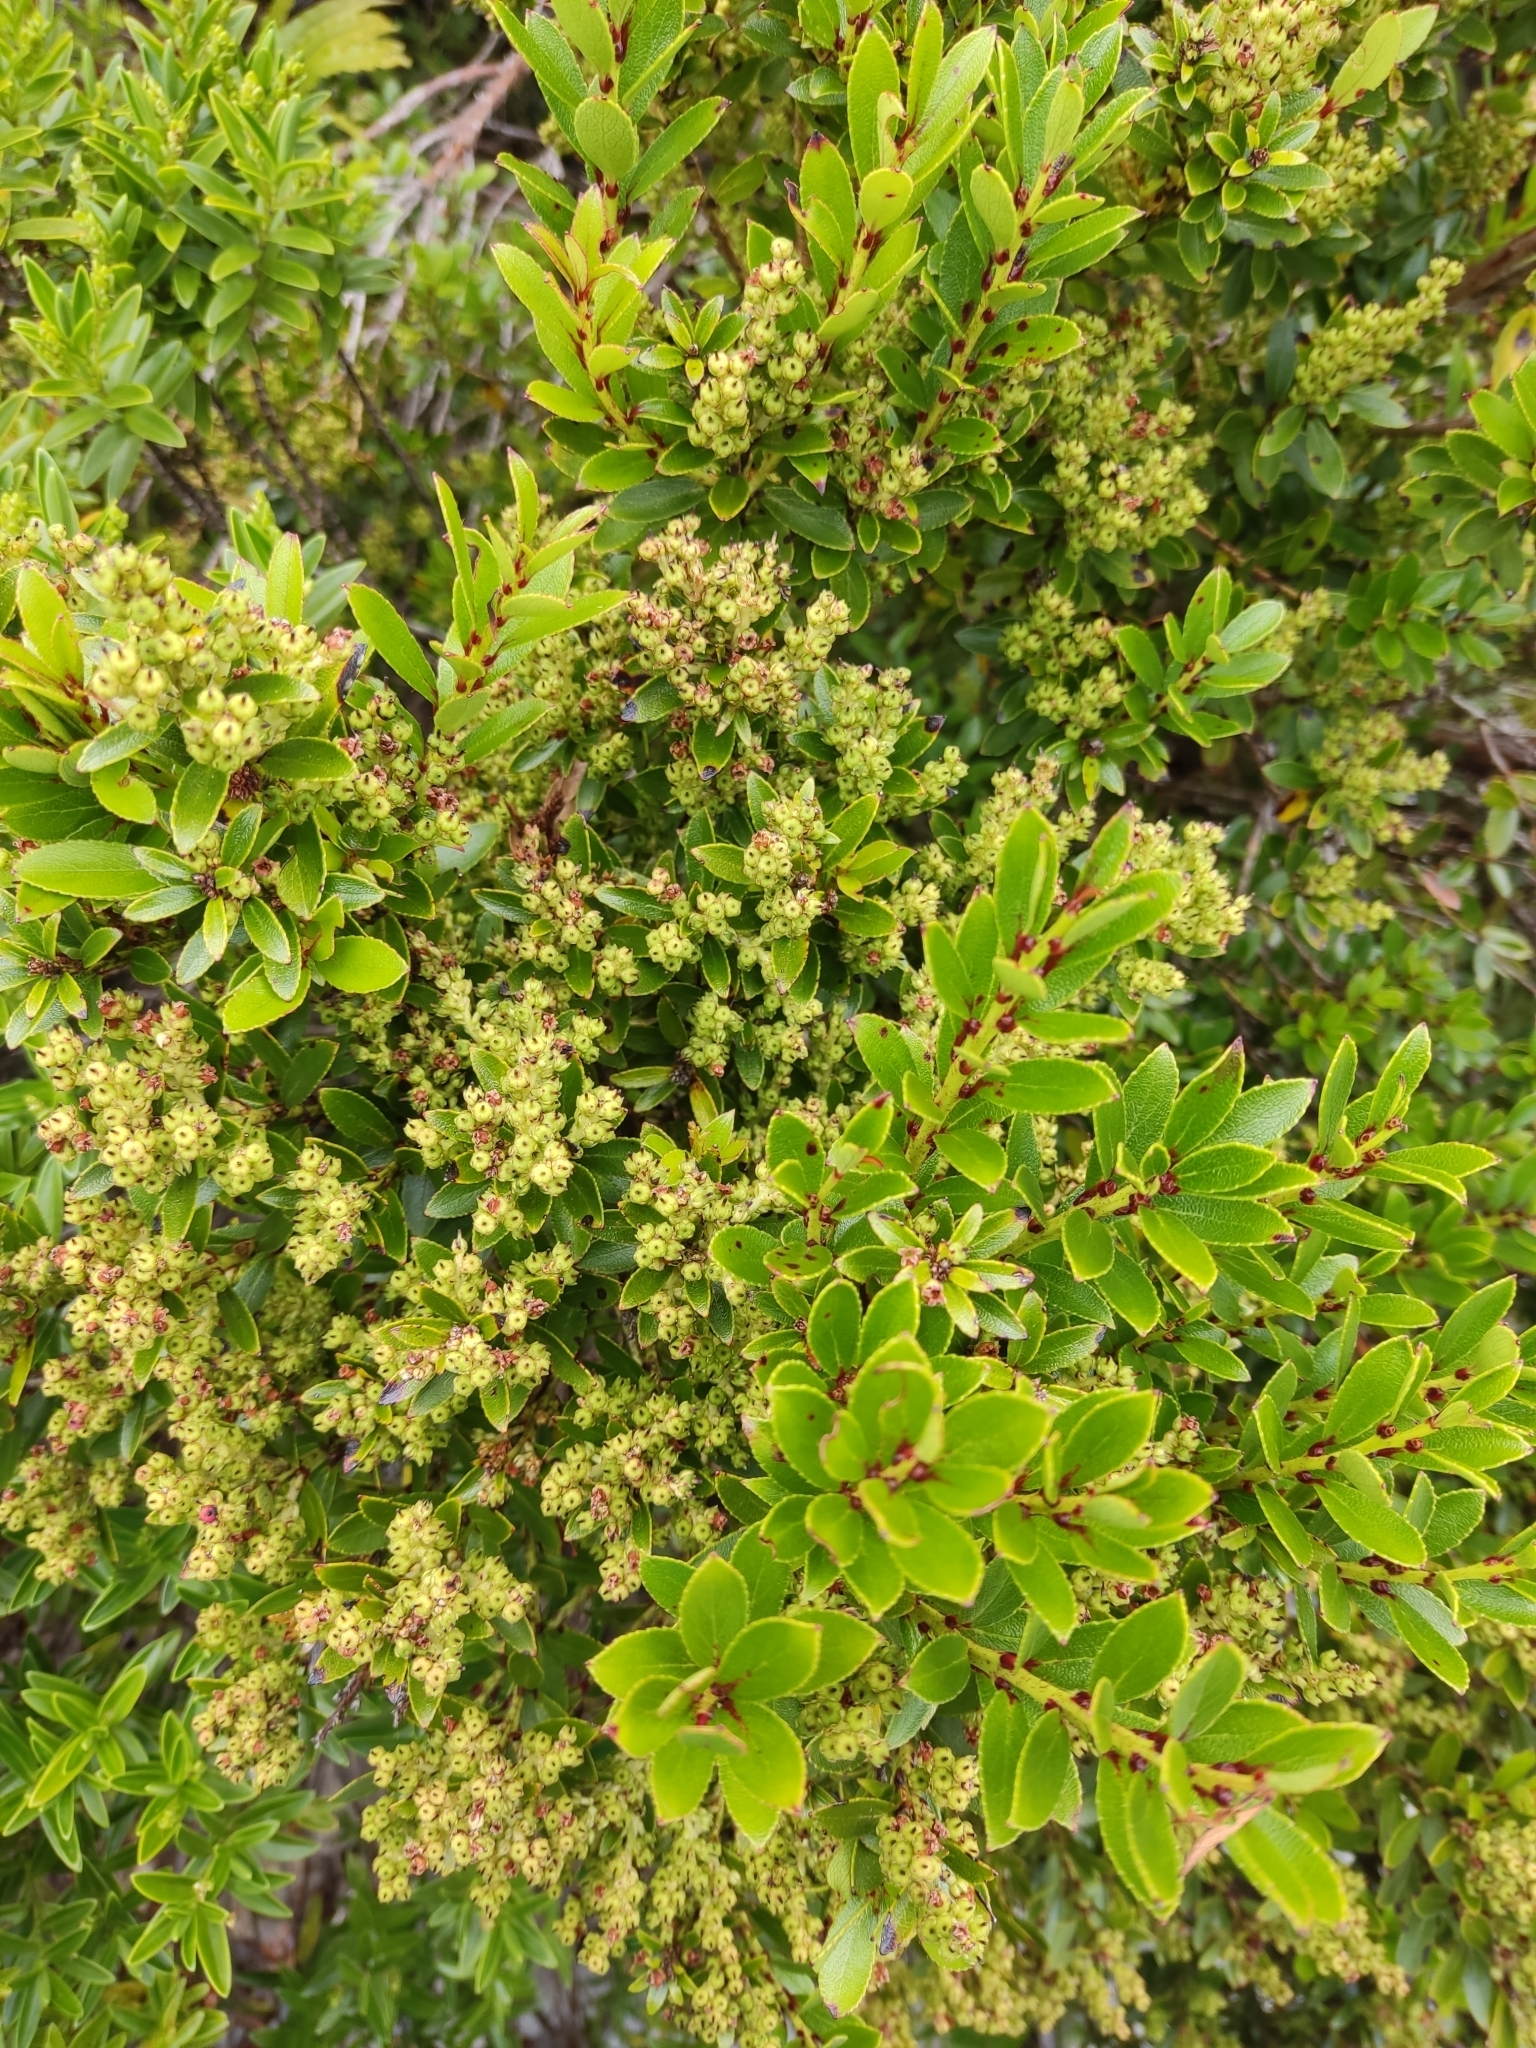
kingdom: Plantae
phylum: Tracheophyta
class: Magnoliopsida
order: Ericales
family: Ericaceae
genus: Gaultheria
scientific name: Gaultheria crassa
